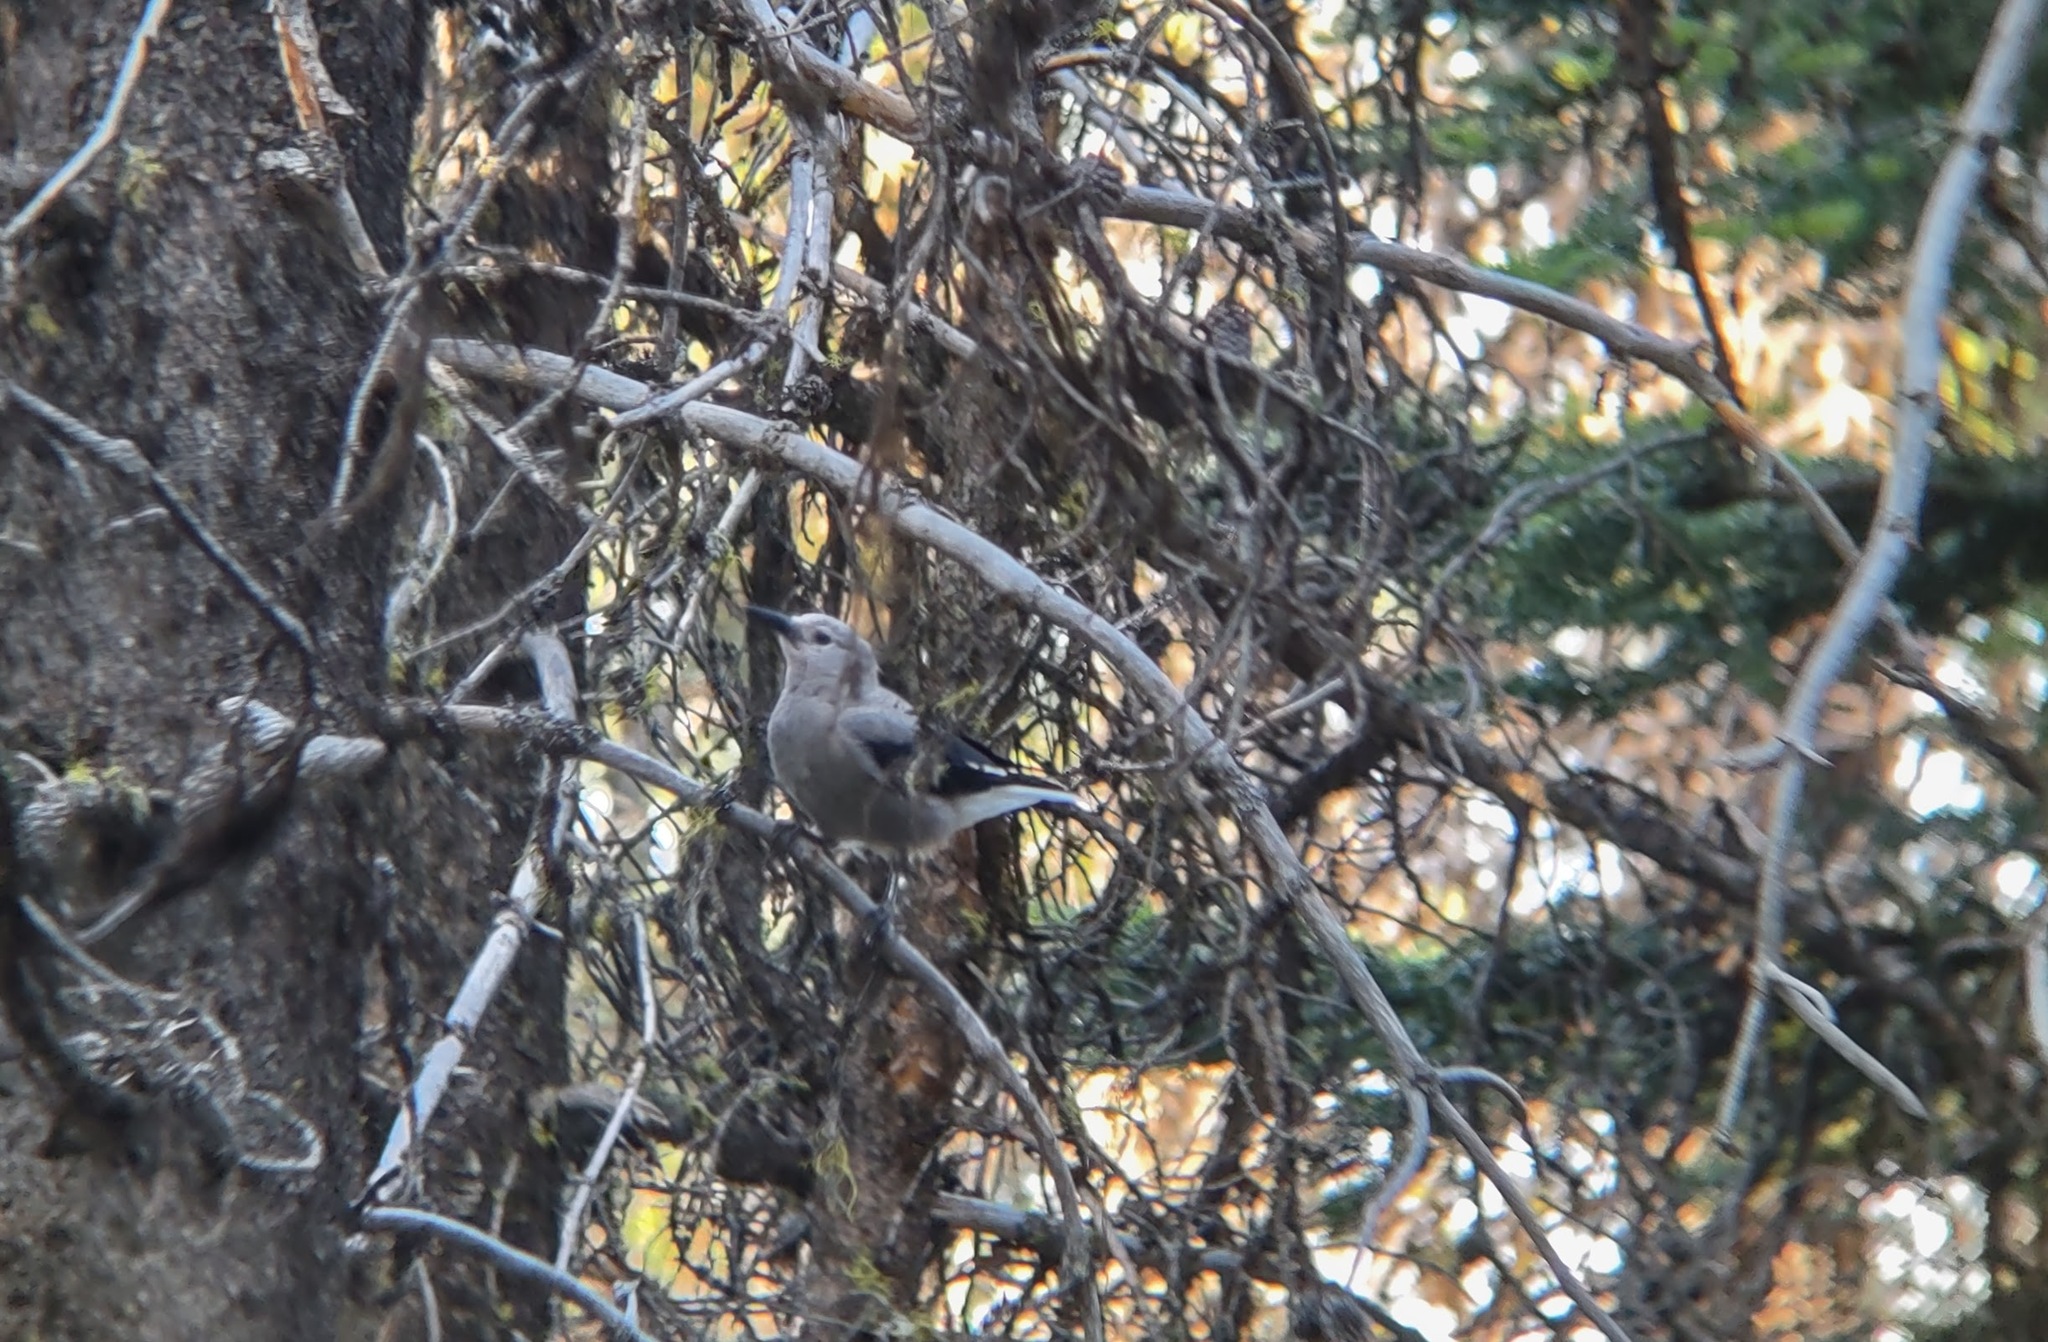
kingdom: Animalia
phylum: Chordata
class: Aves
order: Passeriformes
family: Corvidae
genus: Nucifraga
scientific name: Nucifraga columbiana
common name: Clark's nutcracker
